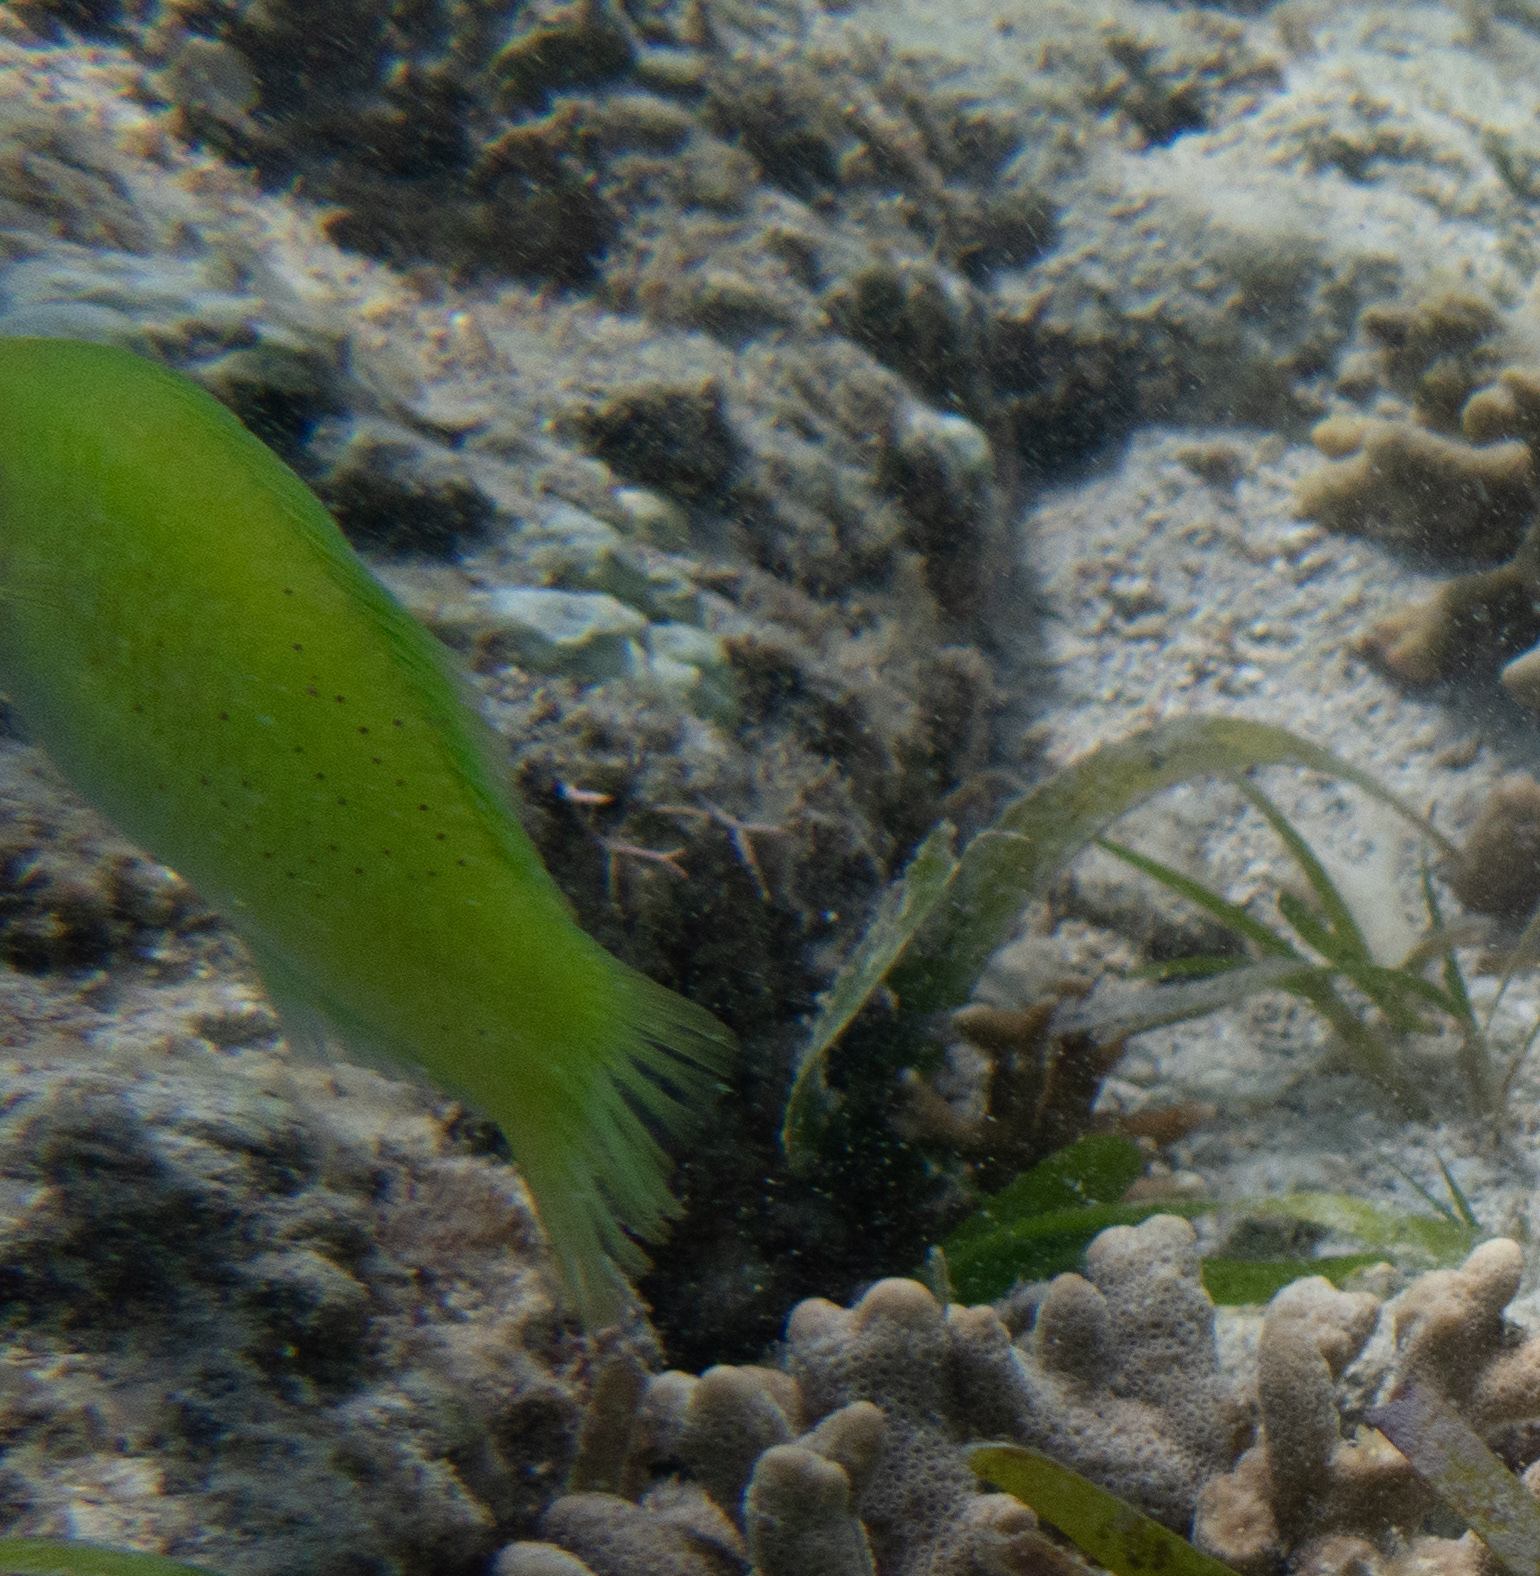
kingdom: Animalia
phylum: Chordata
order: Perciformes
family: Labridae
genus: Halichoeres
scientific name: Halichoeres chloropterus
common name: Pastel-green wrasse
